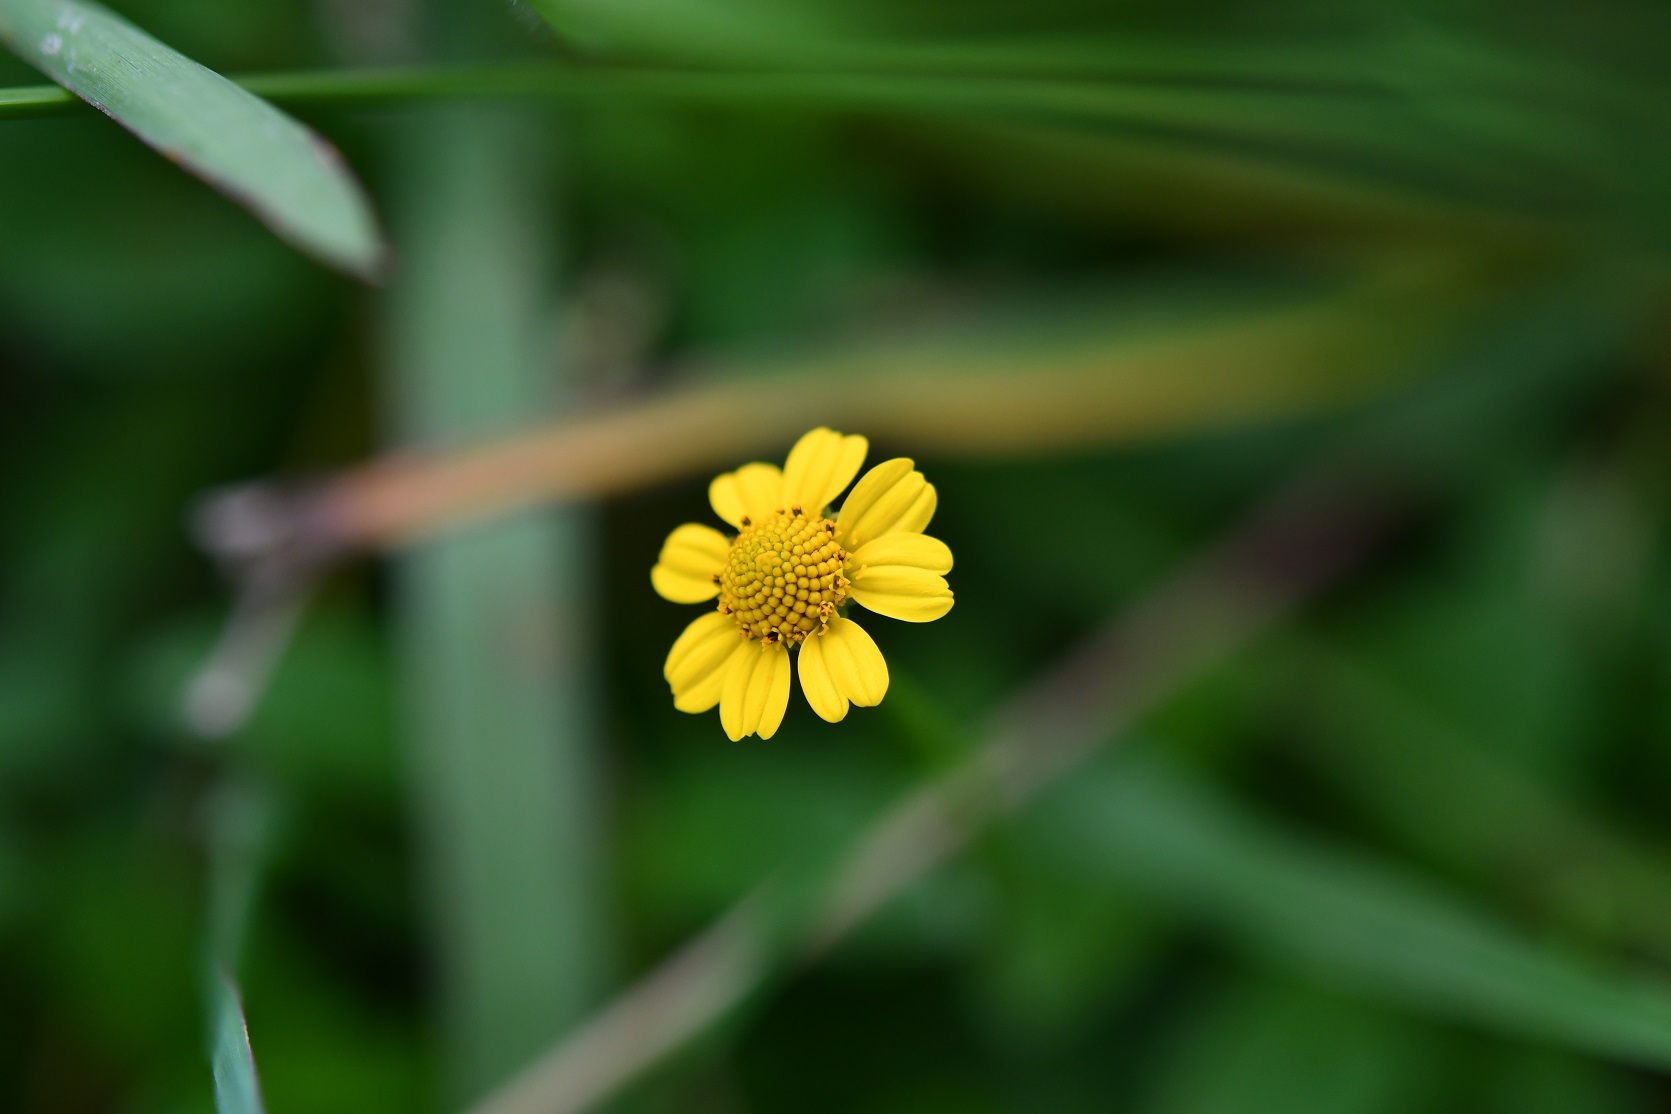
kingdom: Plantae
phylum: Tracheophyta
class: Magnoliopsida
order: Asterales
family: Asteraceae
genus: Acmella
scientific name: Acmella repens
